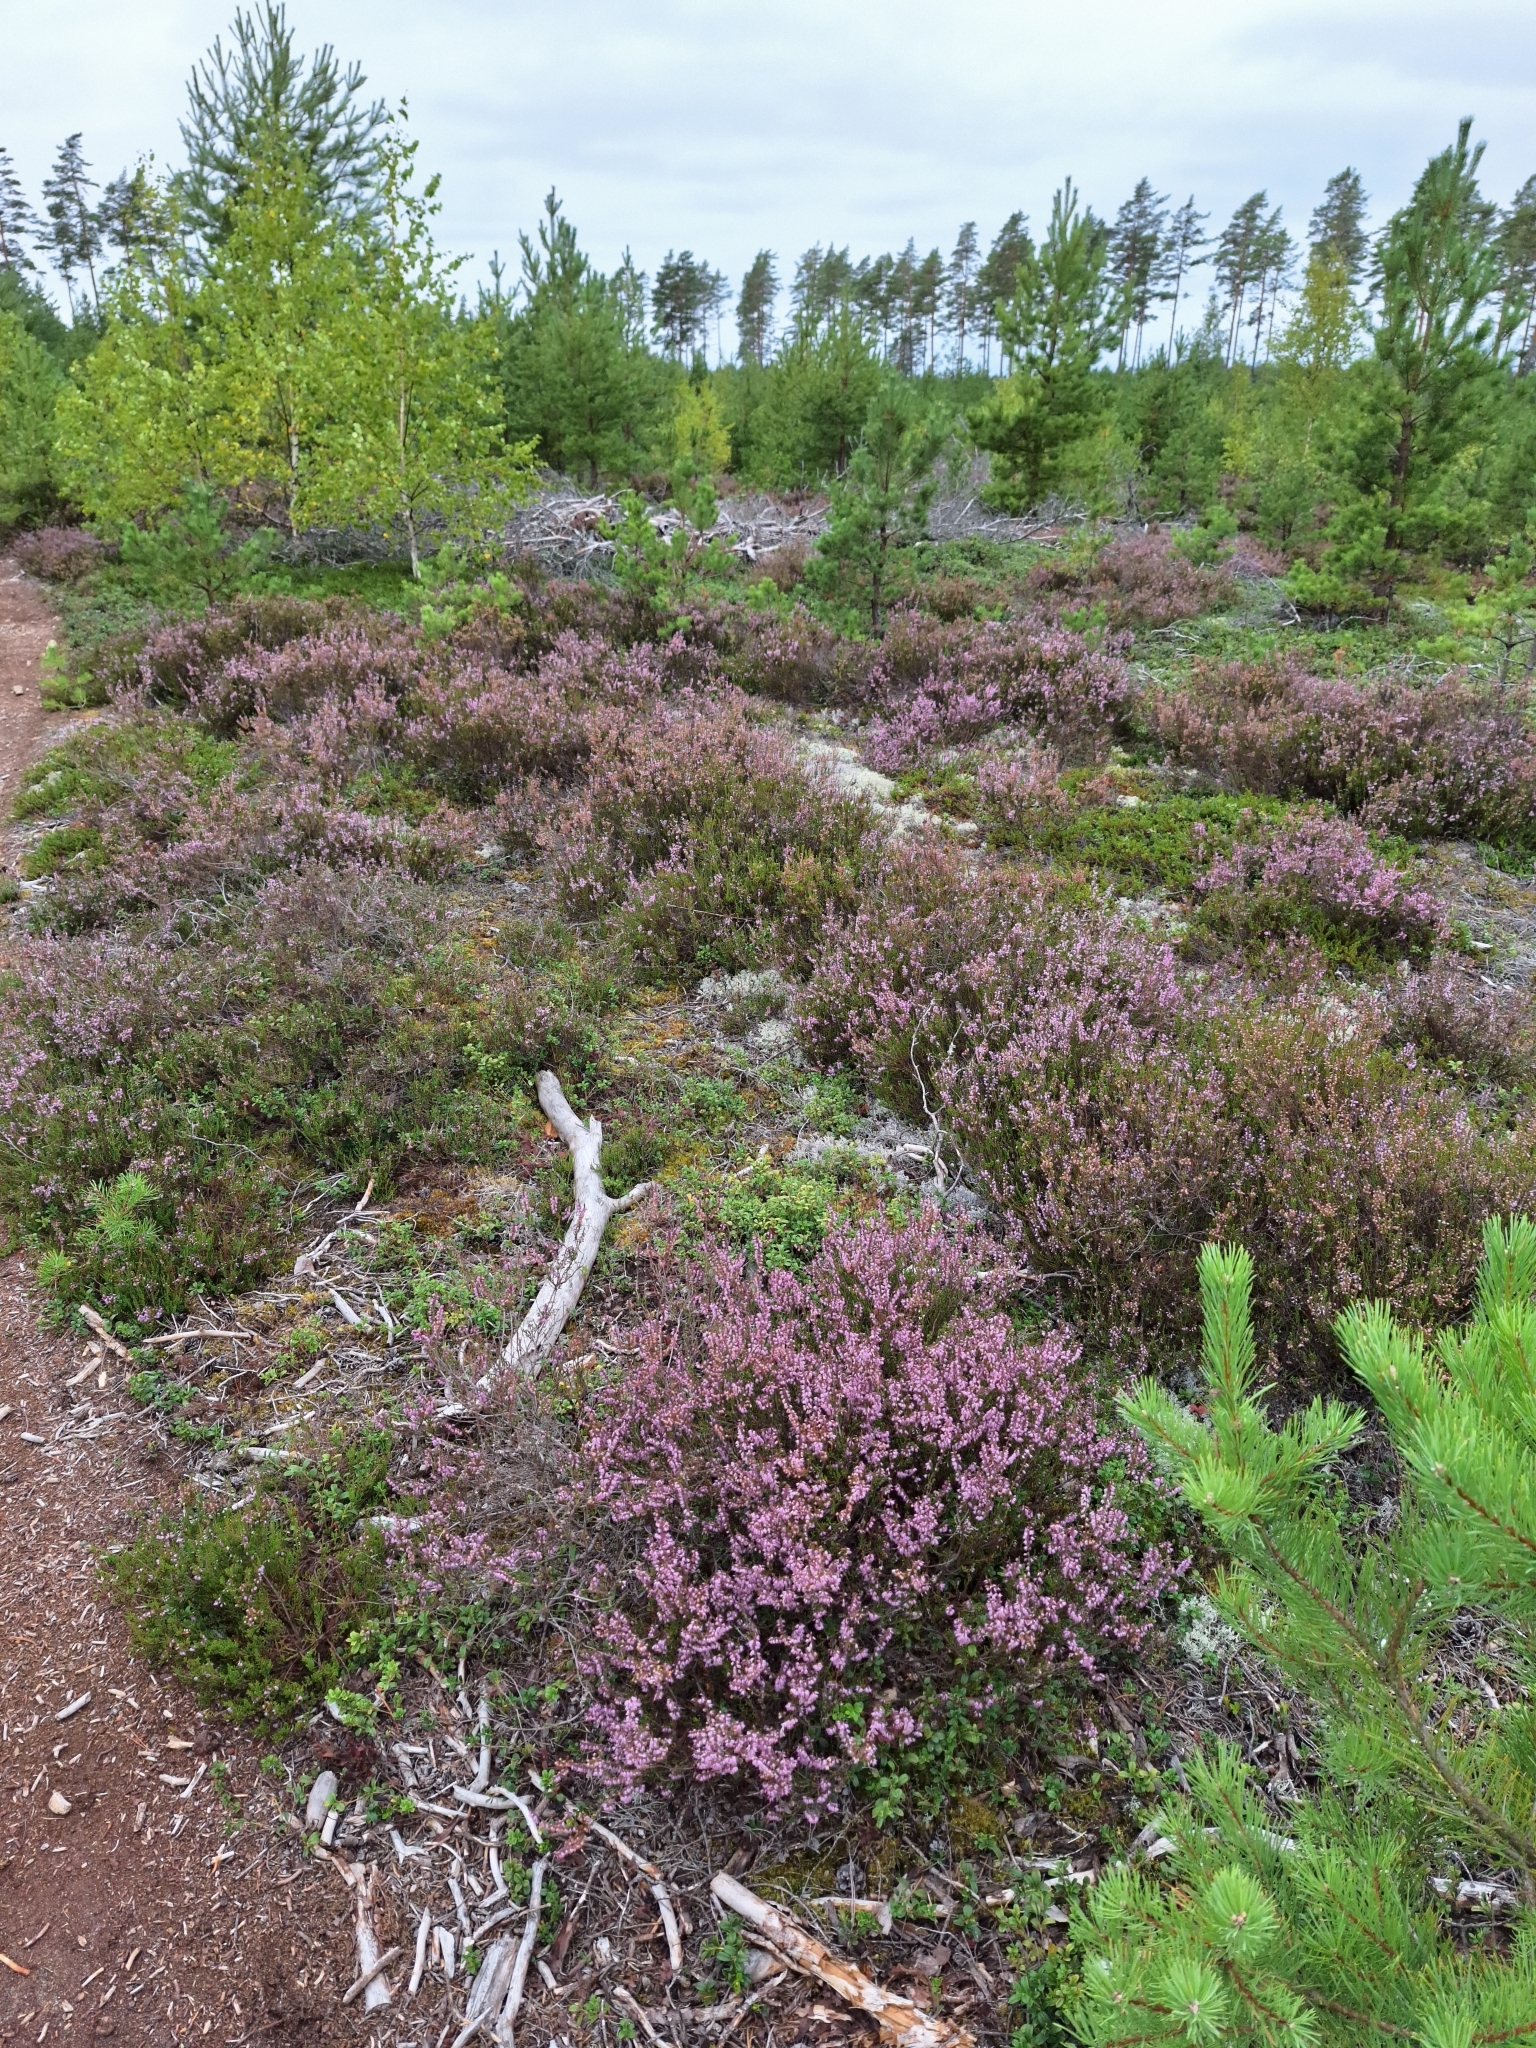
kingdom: Plantae
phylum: Tracheophyta
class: Magnoliopsida
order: Ericales
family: Ericaceae
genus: Calluna
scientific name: Calluna vulgaris
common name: Heather
